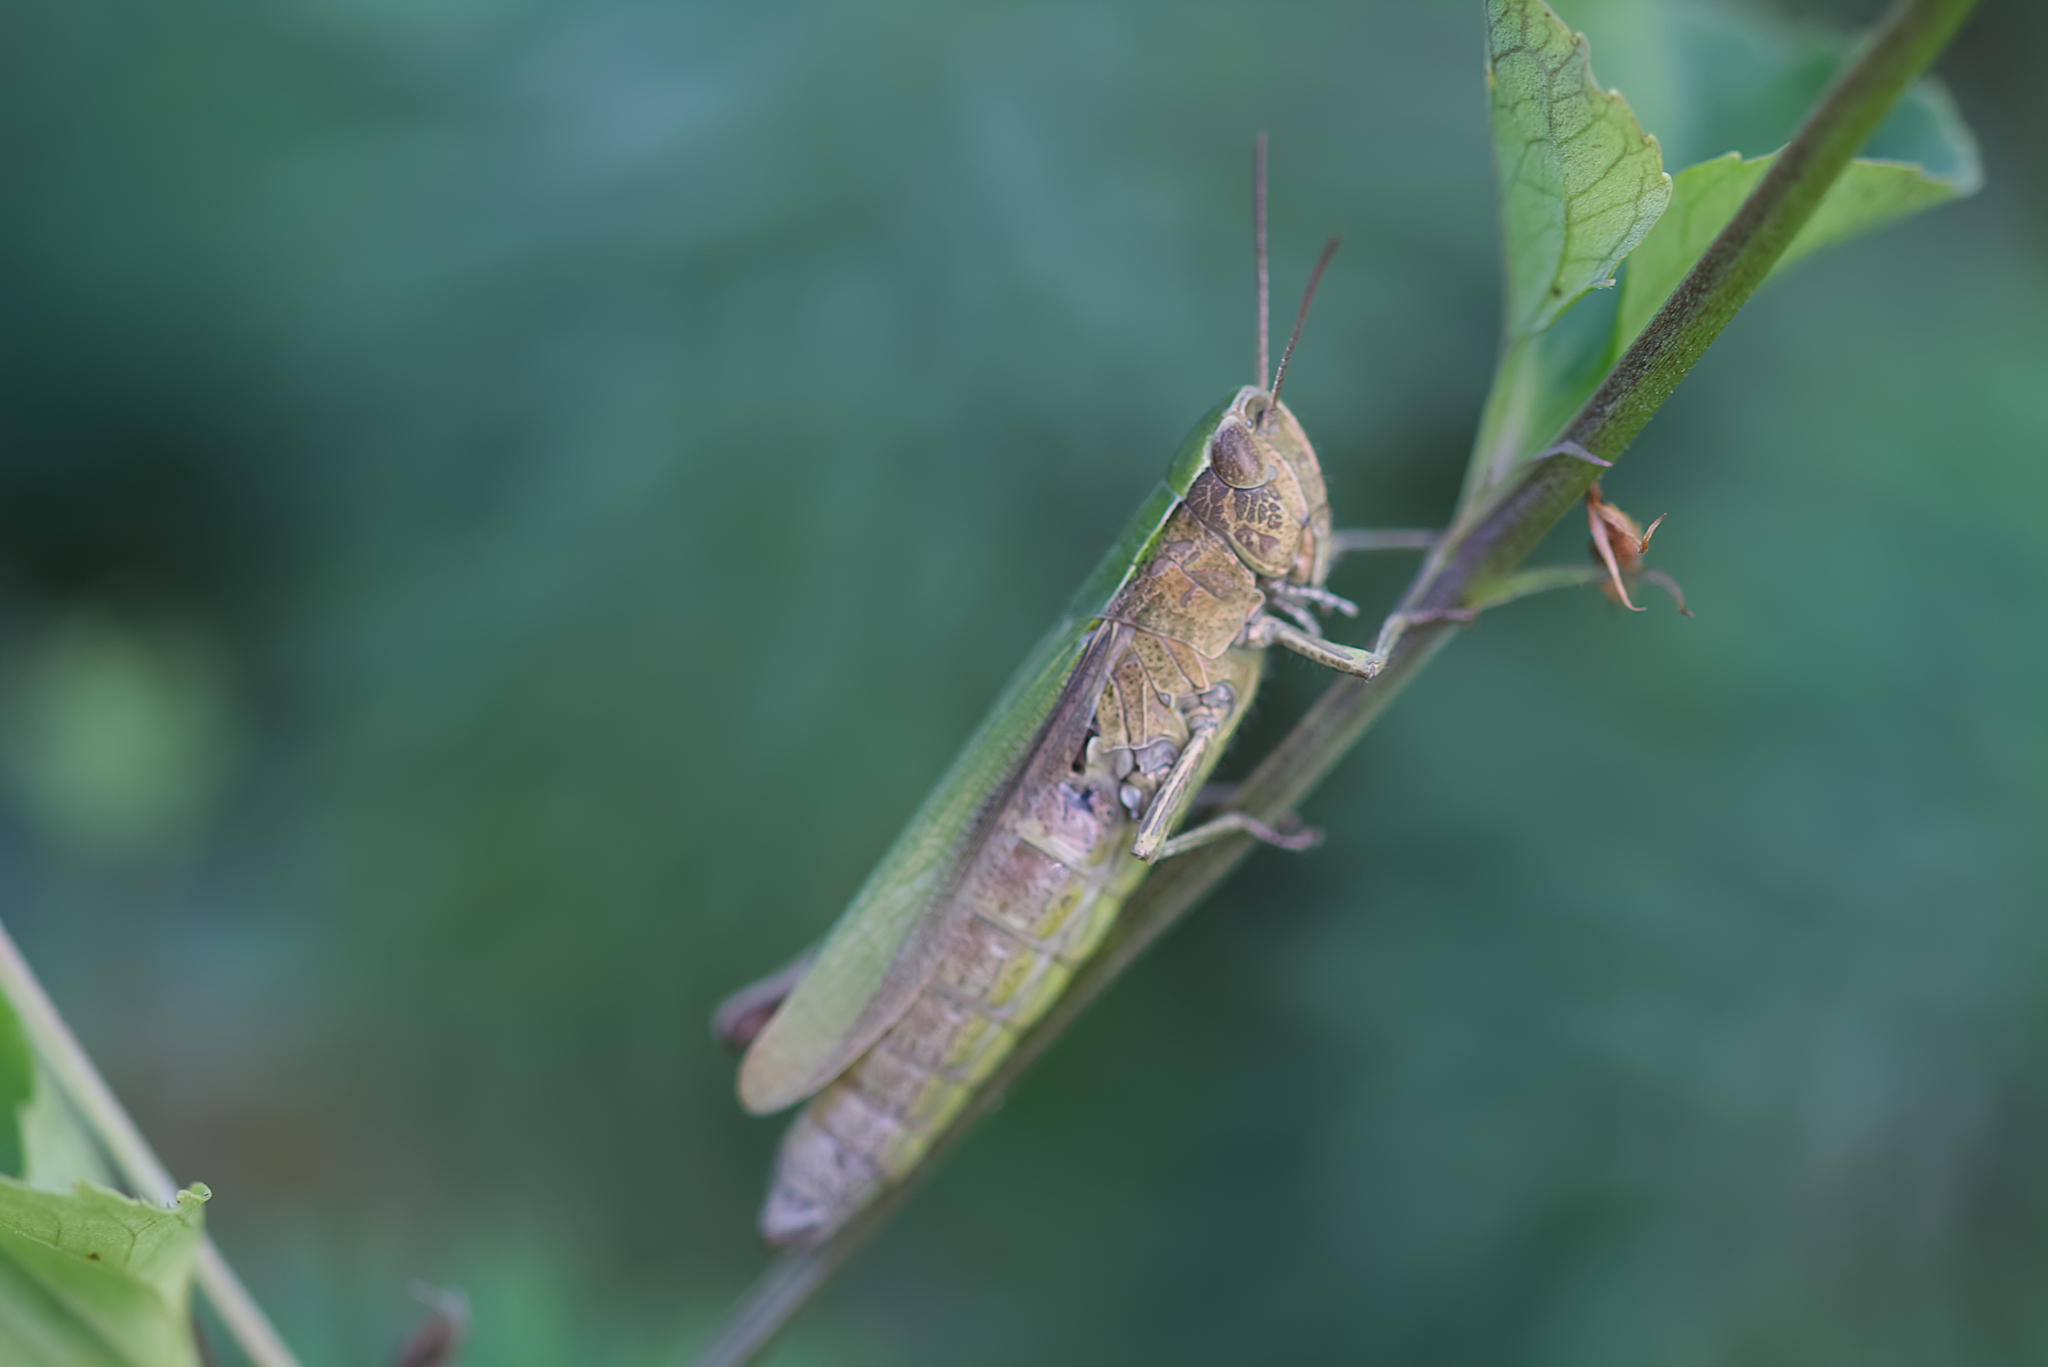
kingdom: Animalia
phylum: Arthropoda
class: Insecta
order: Orthoptera
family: Acrididae
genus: Chorthippus
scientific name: Chorthippus dorsatus
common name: Steppe grasshopper
